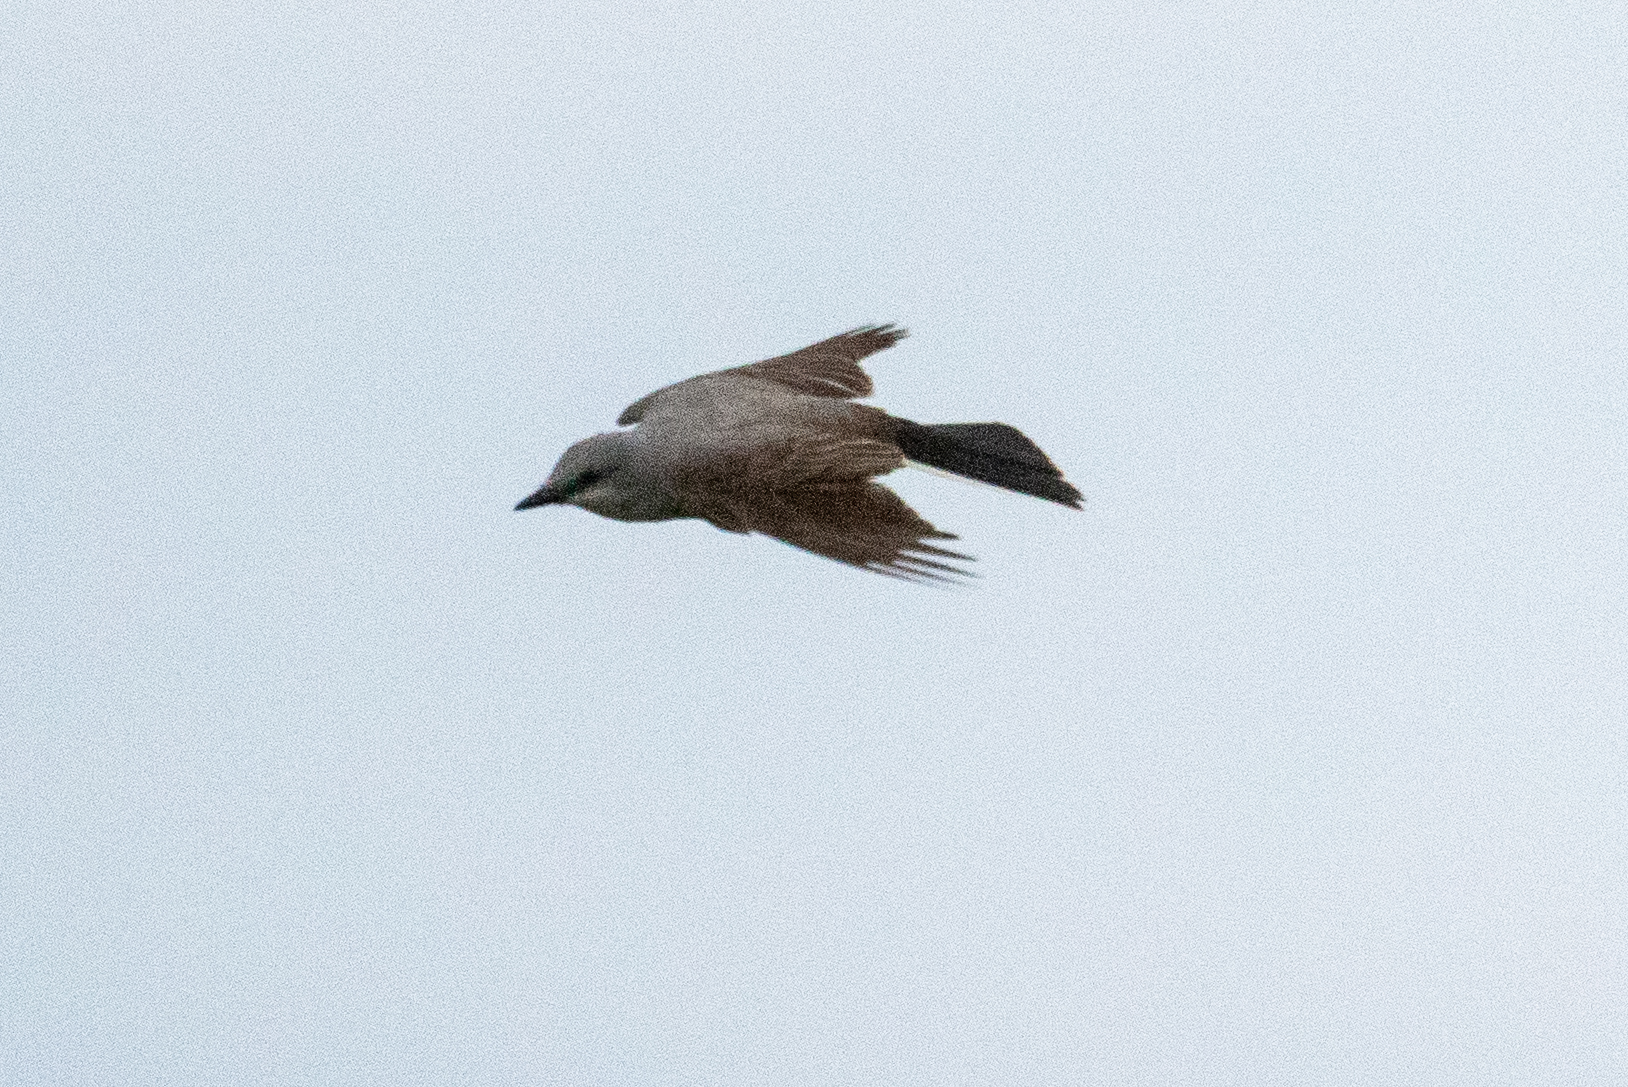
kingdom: Animalia
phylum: Chordata
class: Aves
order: Passeriformes
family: Tyrannidae
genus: Tyrannus
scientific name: Tyrannus verticalis
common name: Western kingbird
